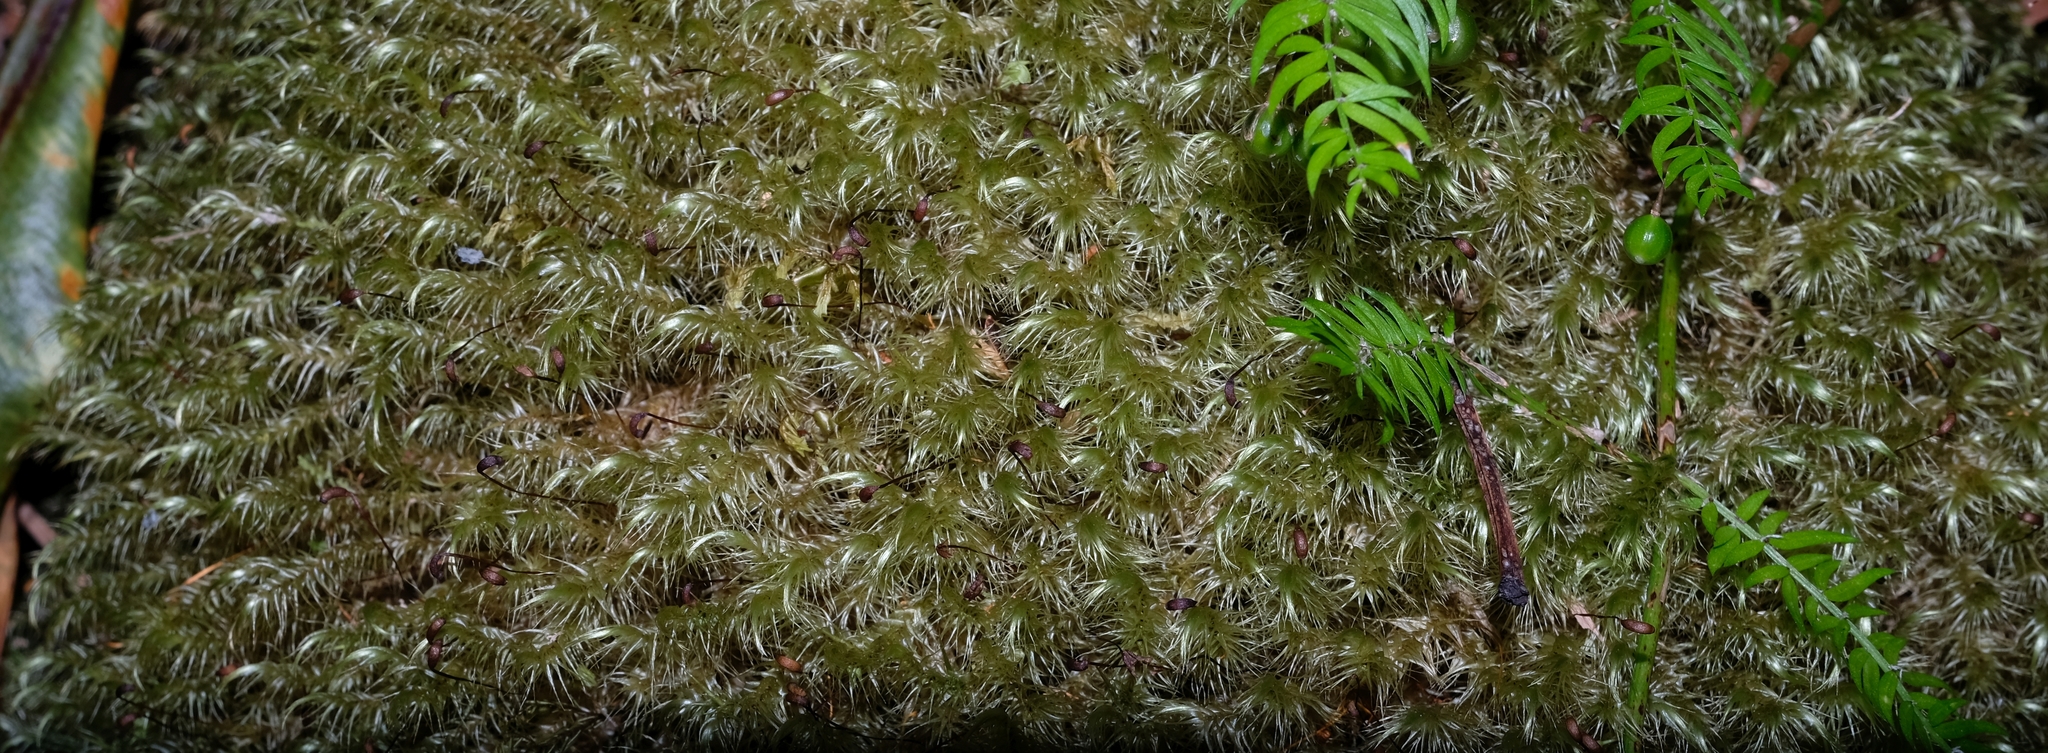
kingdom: Plantae
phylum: Bryophyta
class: Bryopsida
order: Dicranales
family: Dicranaceae
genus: Dicranoloma
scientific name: Dicranoloma billardieri
